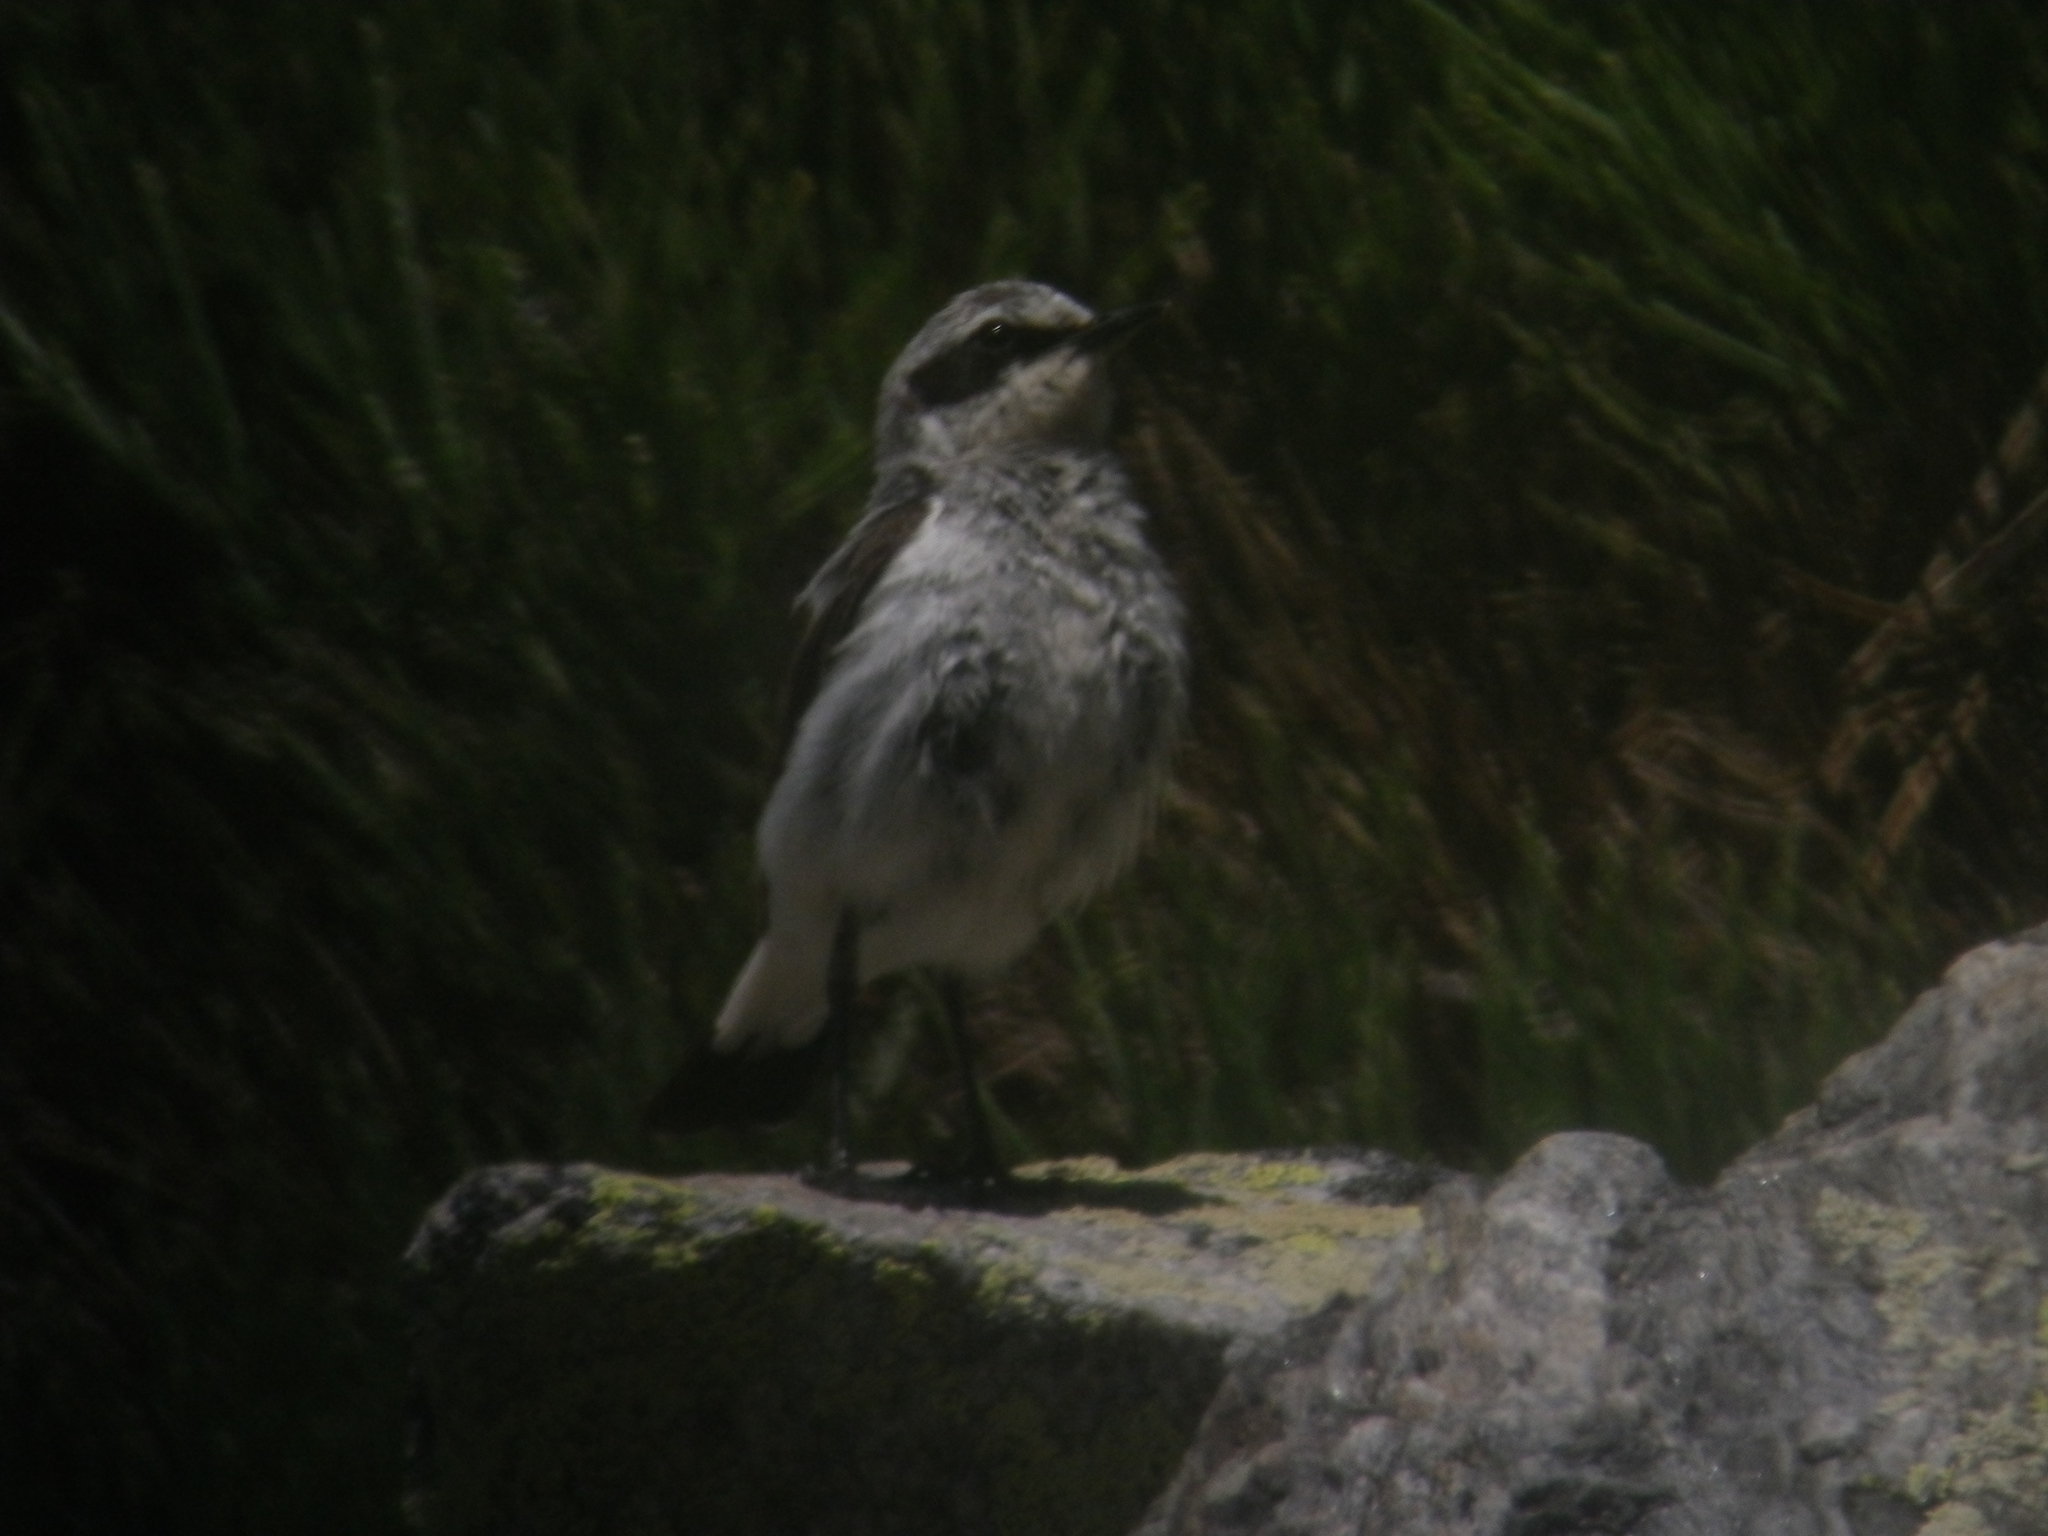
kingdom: Animalia
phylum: Chordata
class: Aves
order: Passeriformes
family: Muscicapidae
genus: Oenanthe
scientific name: Oenanthe oenanthe
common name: Northern wheatear
